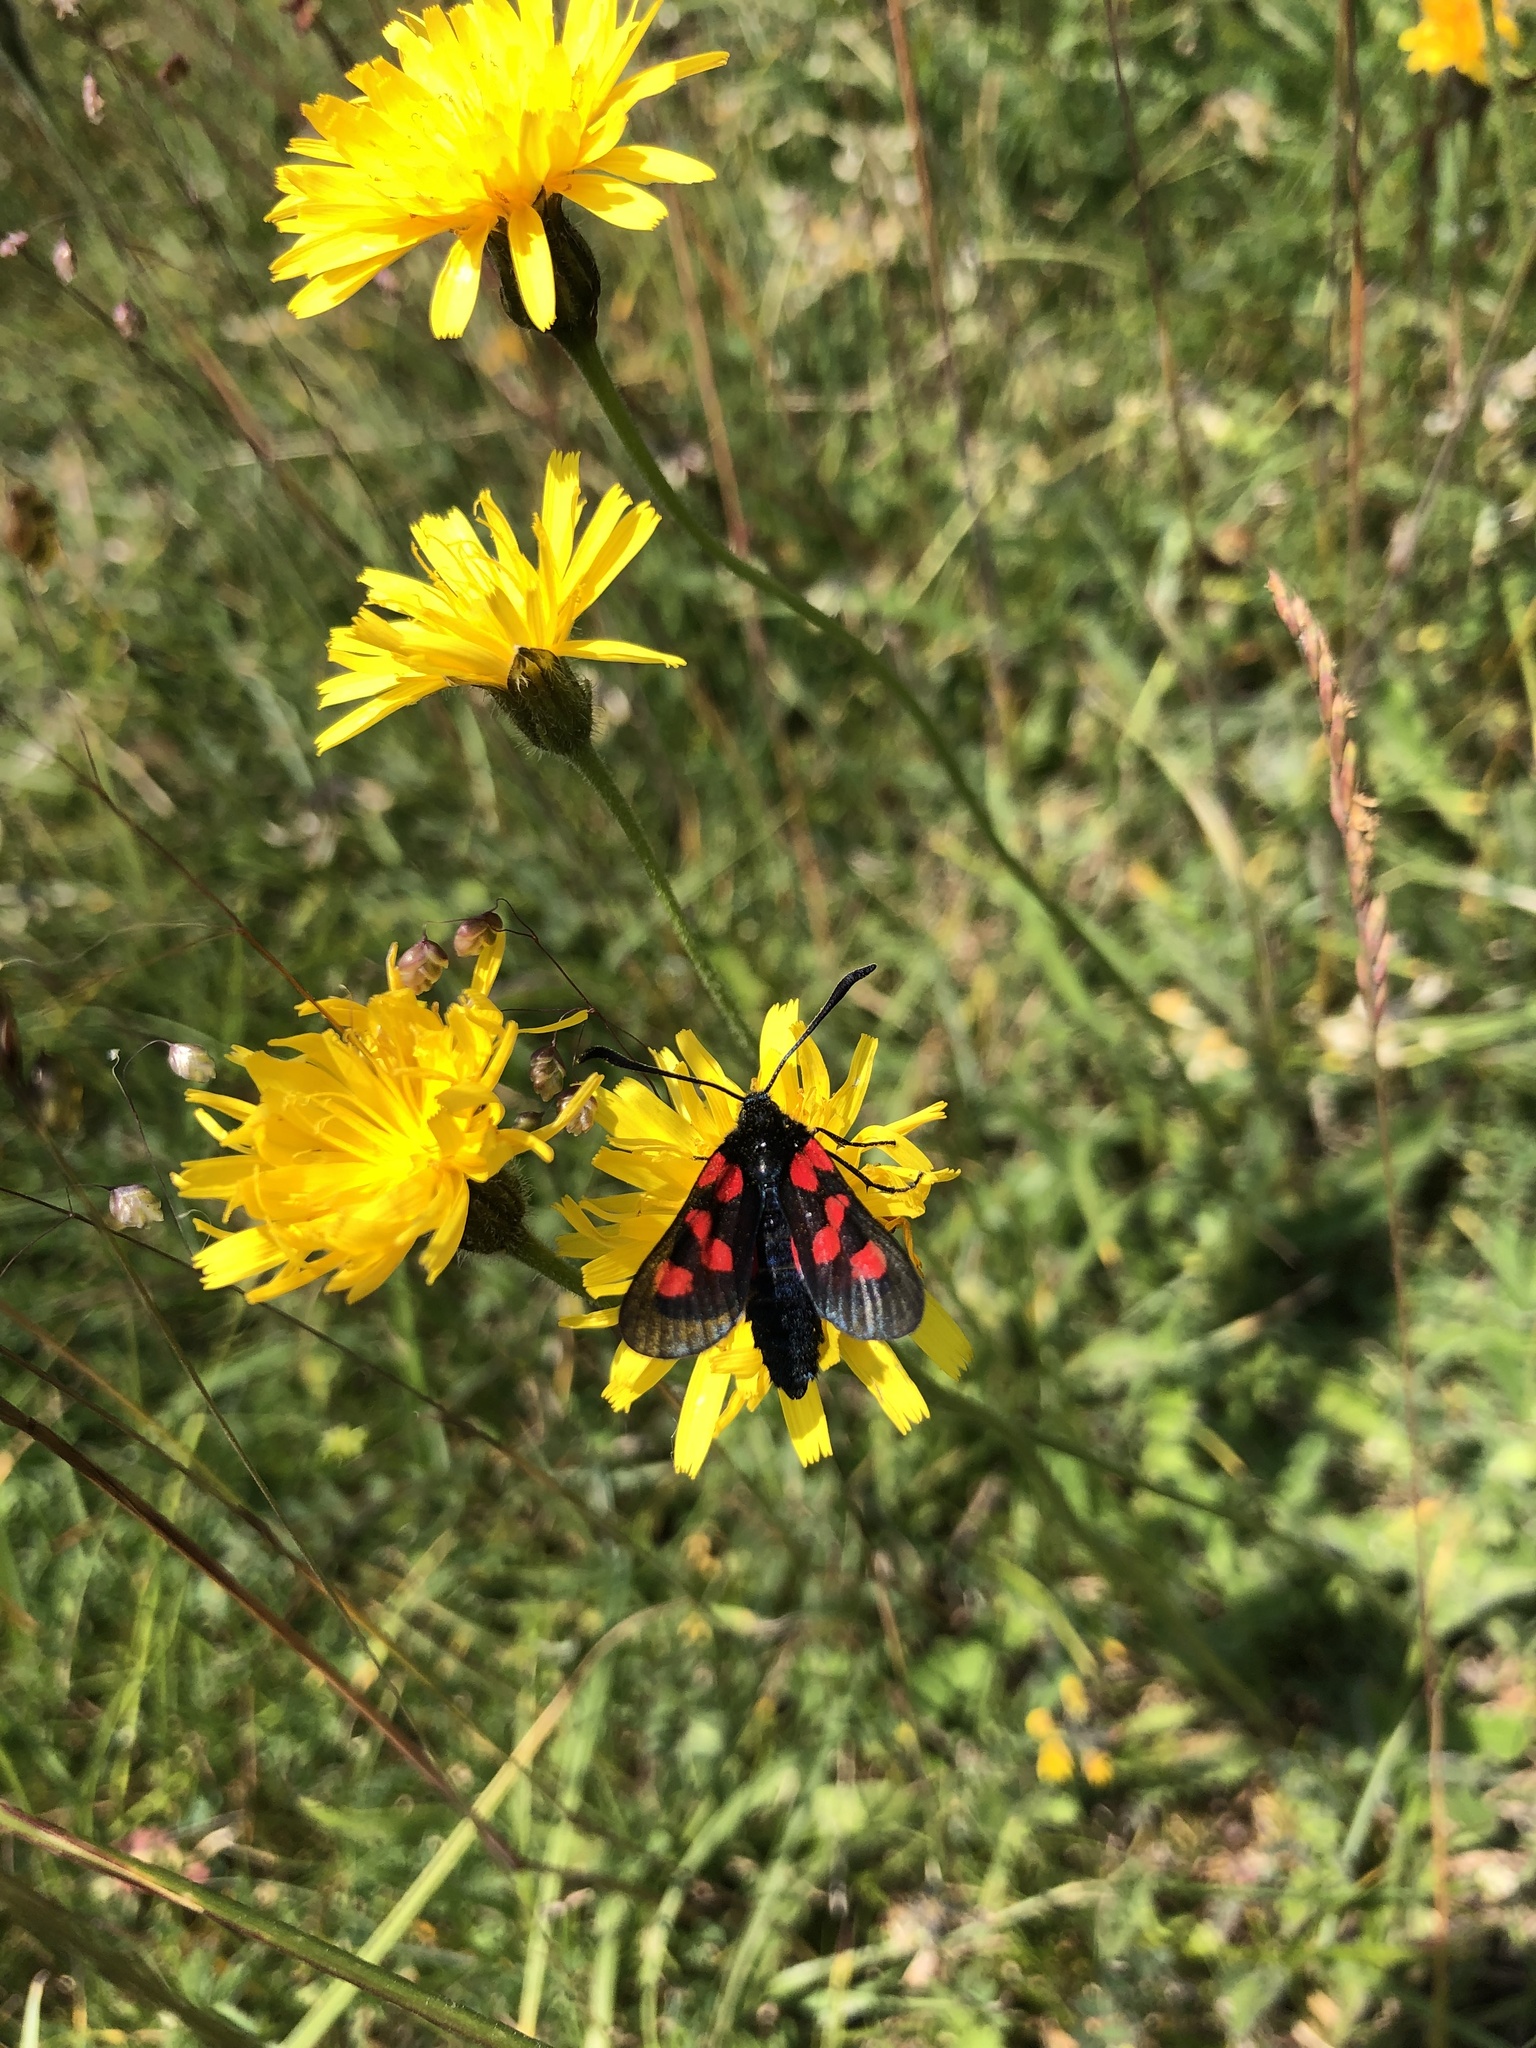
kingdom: Animalia
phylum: Arthropoda
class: Insecta
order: Lepidoptera
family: Zygaenidae
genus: Zygaena
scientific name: Zygaena trifolii
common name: Five-spot burnet
